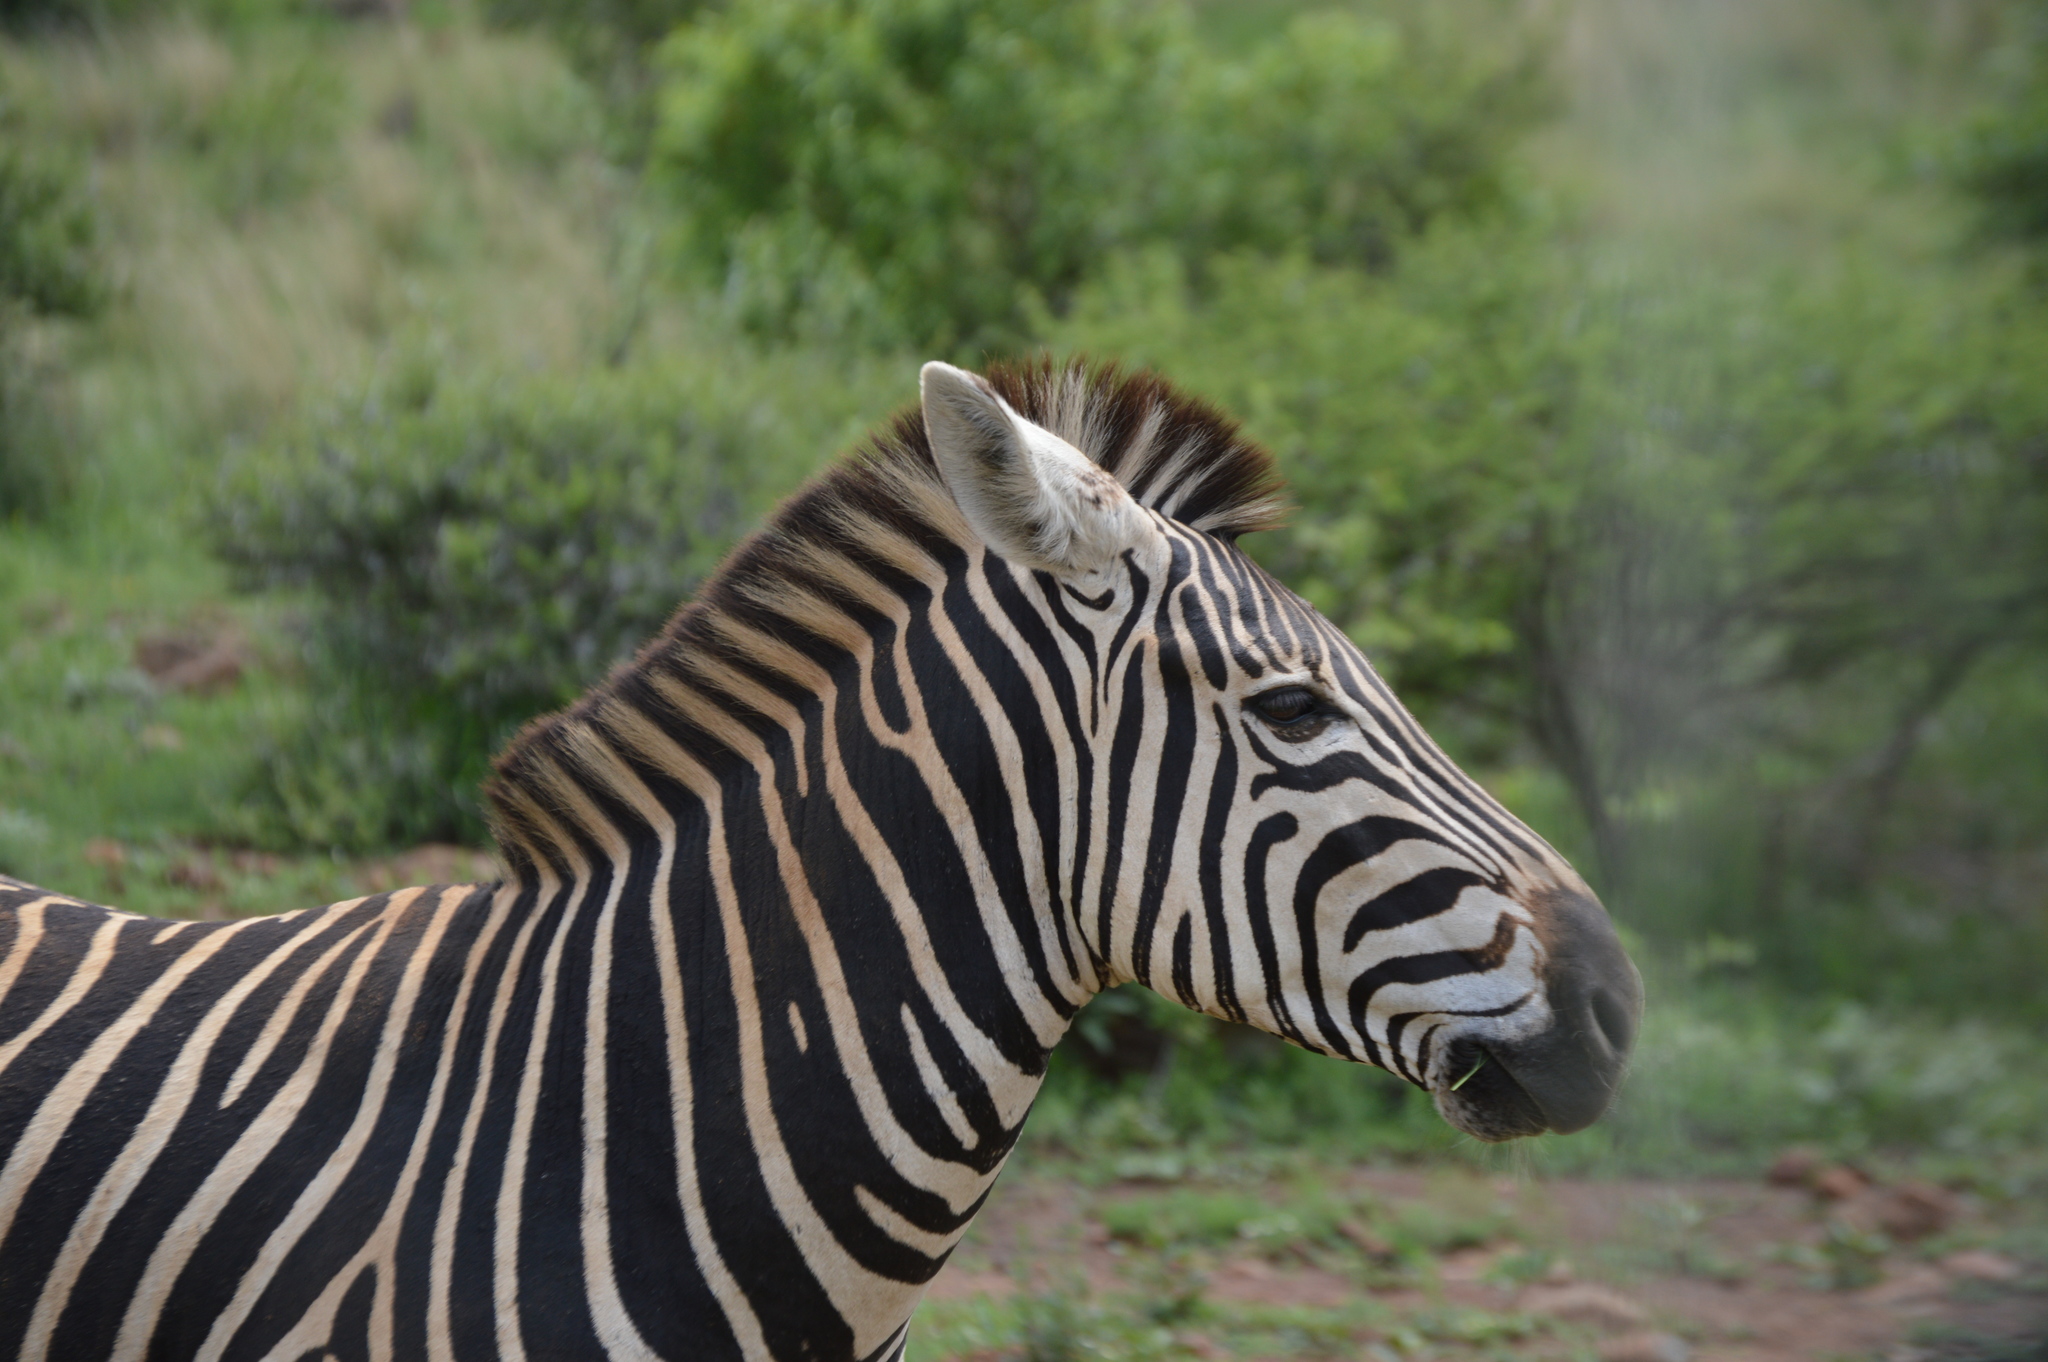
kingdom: Animalia
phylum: Chordata
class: Mammalia
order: Perissodactyla
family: Equidae
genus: Equus
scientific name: Equus quagga
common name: Plains zebra
